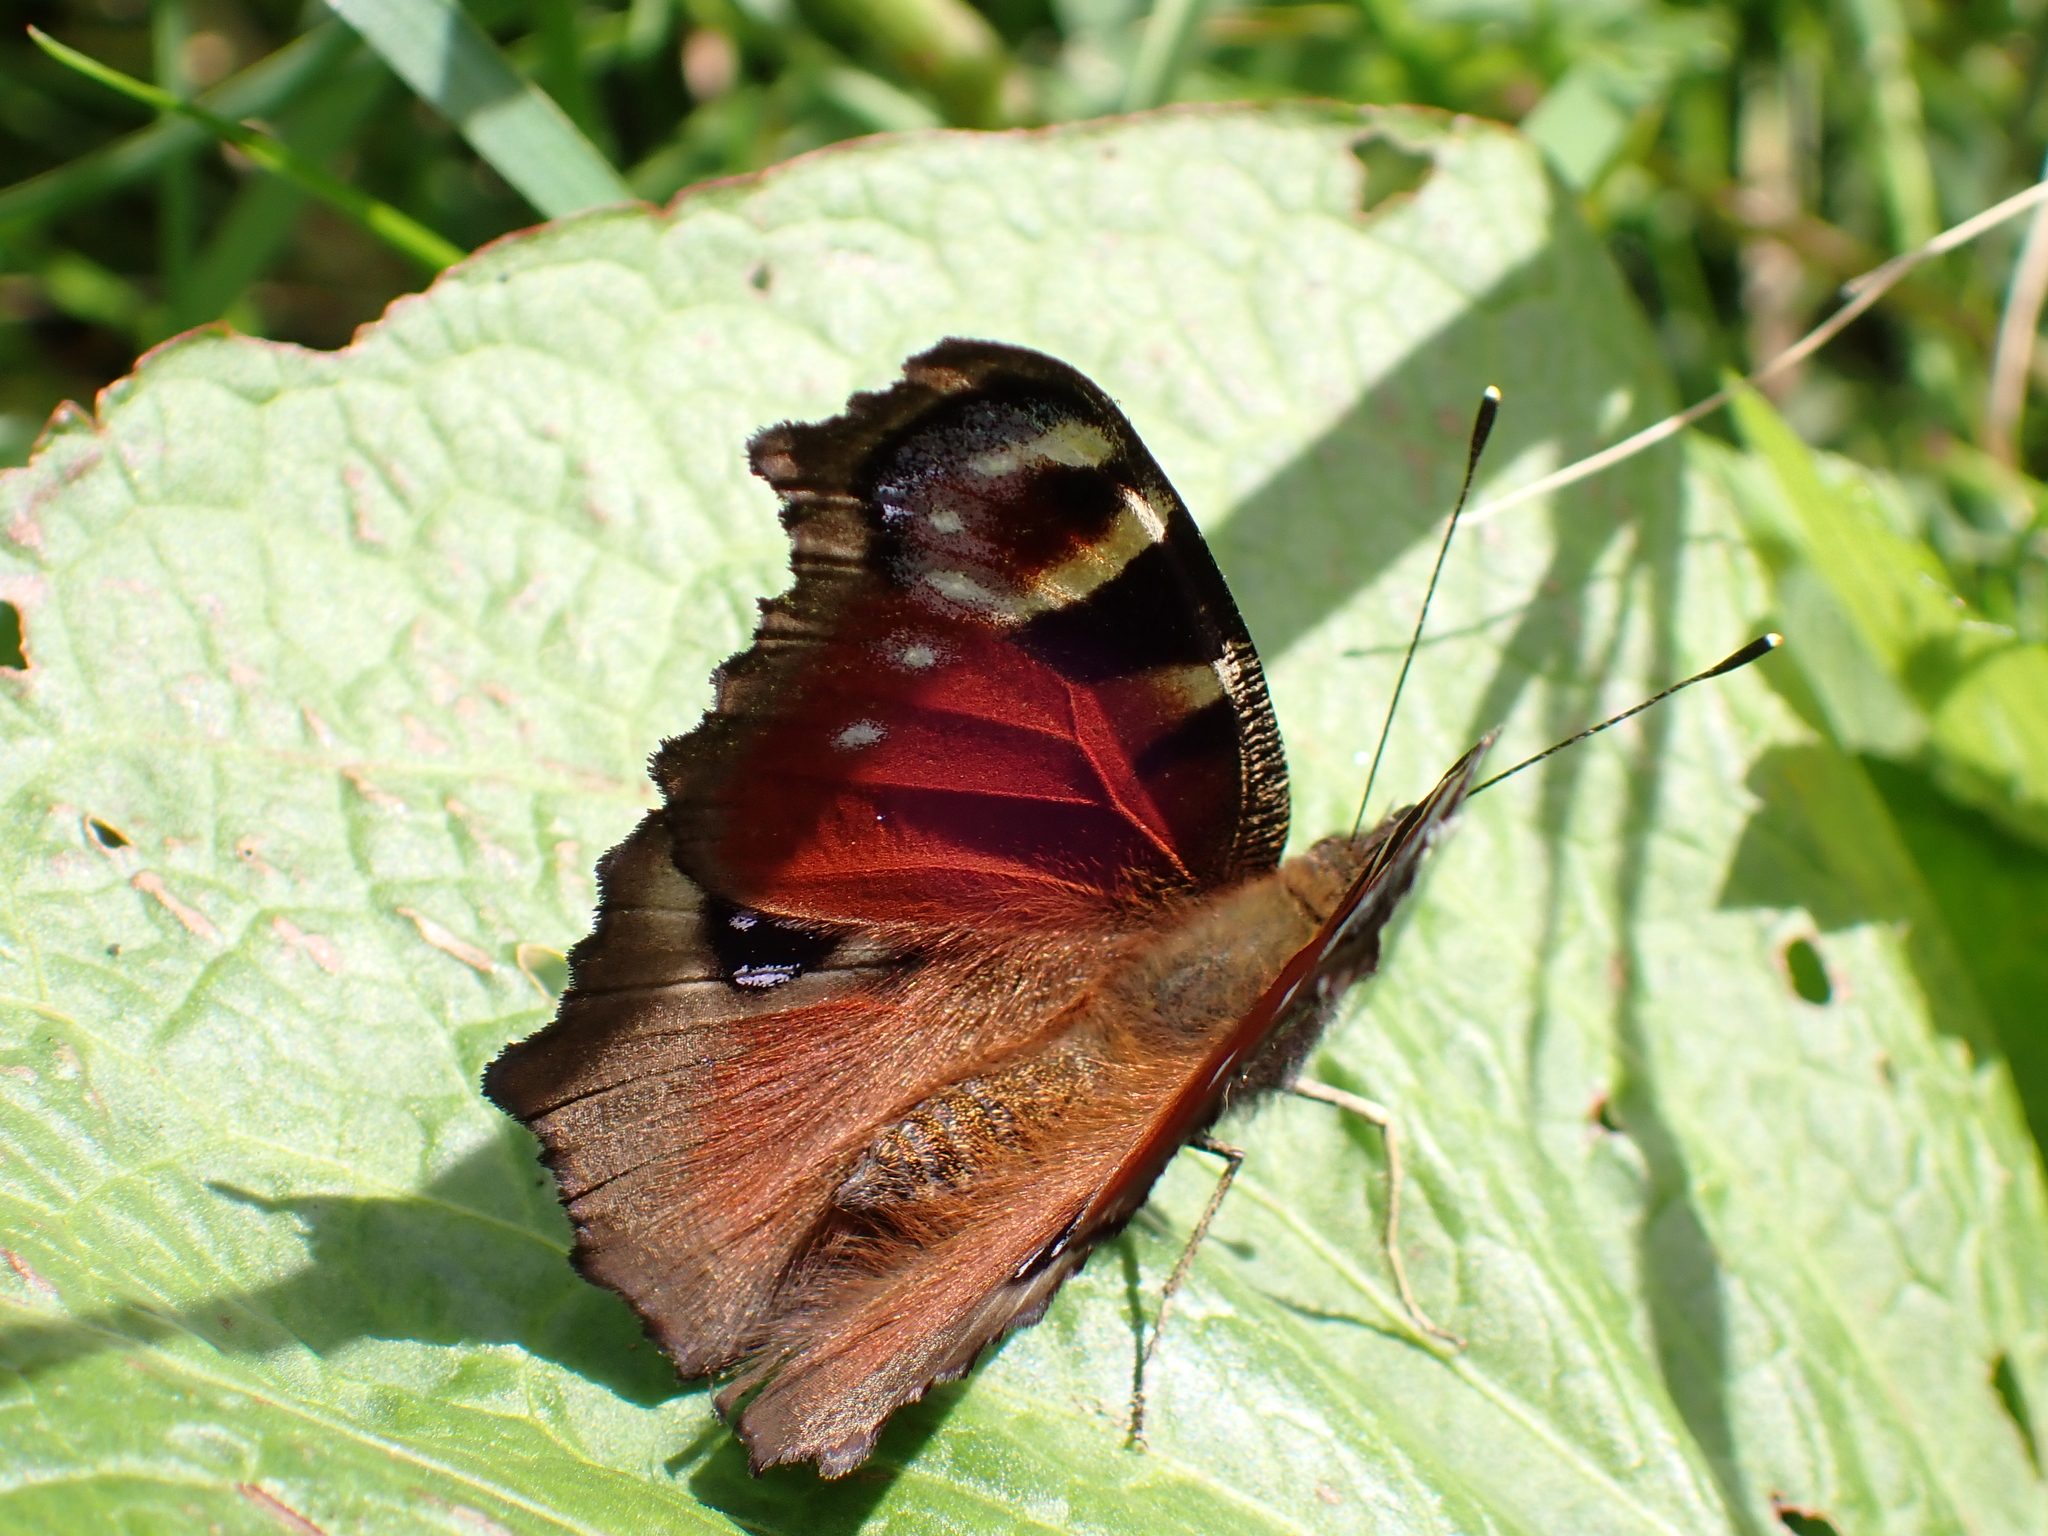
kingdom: Animalia
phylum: Arthropoda
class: Insecta
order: Lepidoptera
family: Nymphalidae
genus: Aglais
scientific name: Aglais io
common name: Peacock
